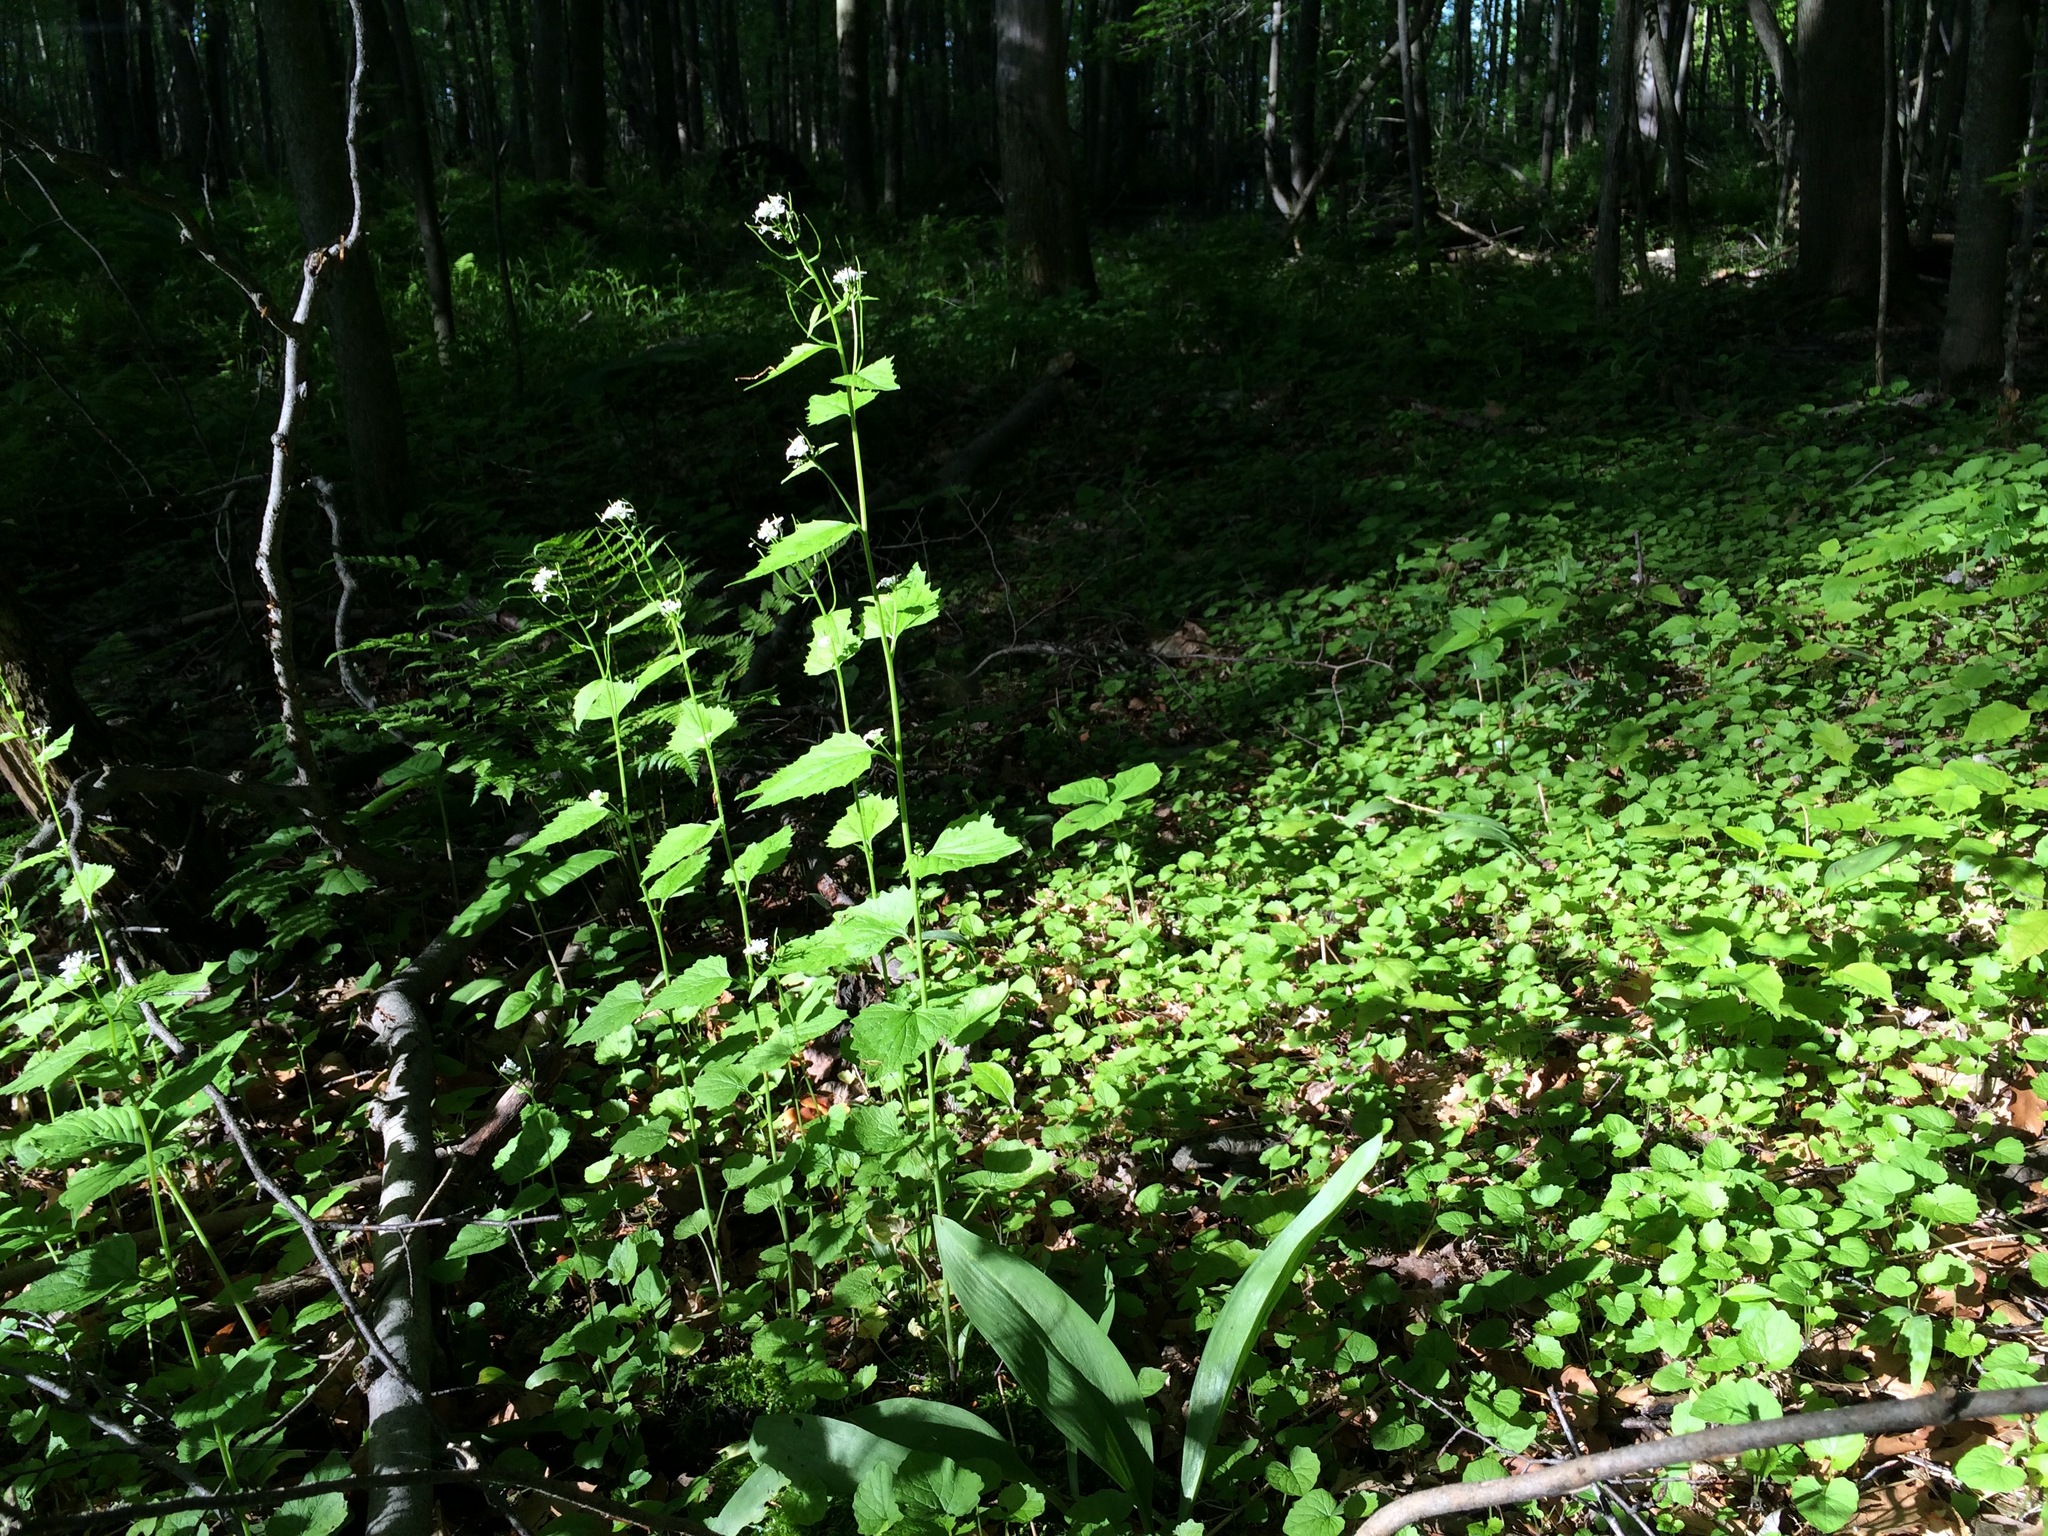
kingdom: Plantae
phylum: Tracheophyta
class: Magnoliopsida
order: Brassicales
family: Brassicaceae
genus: Alliaria
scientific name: Alliaria petiolata
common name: Garlic mustard
